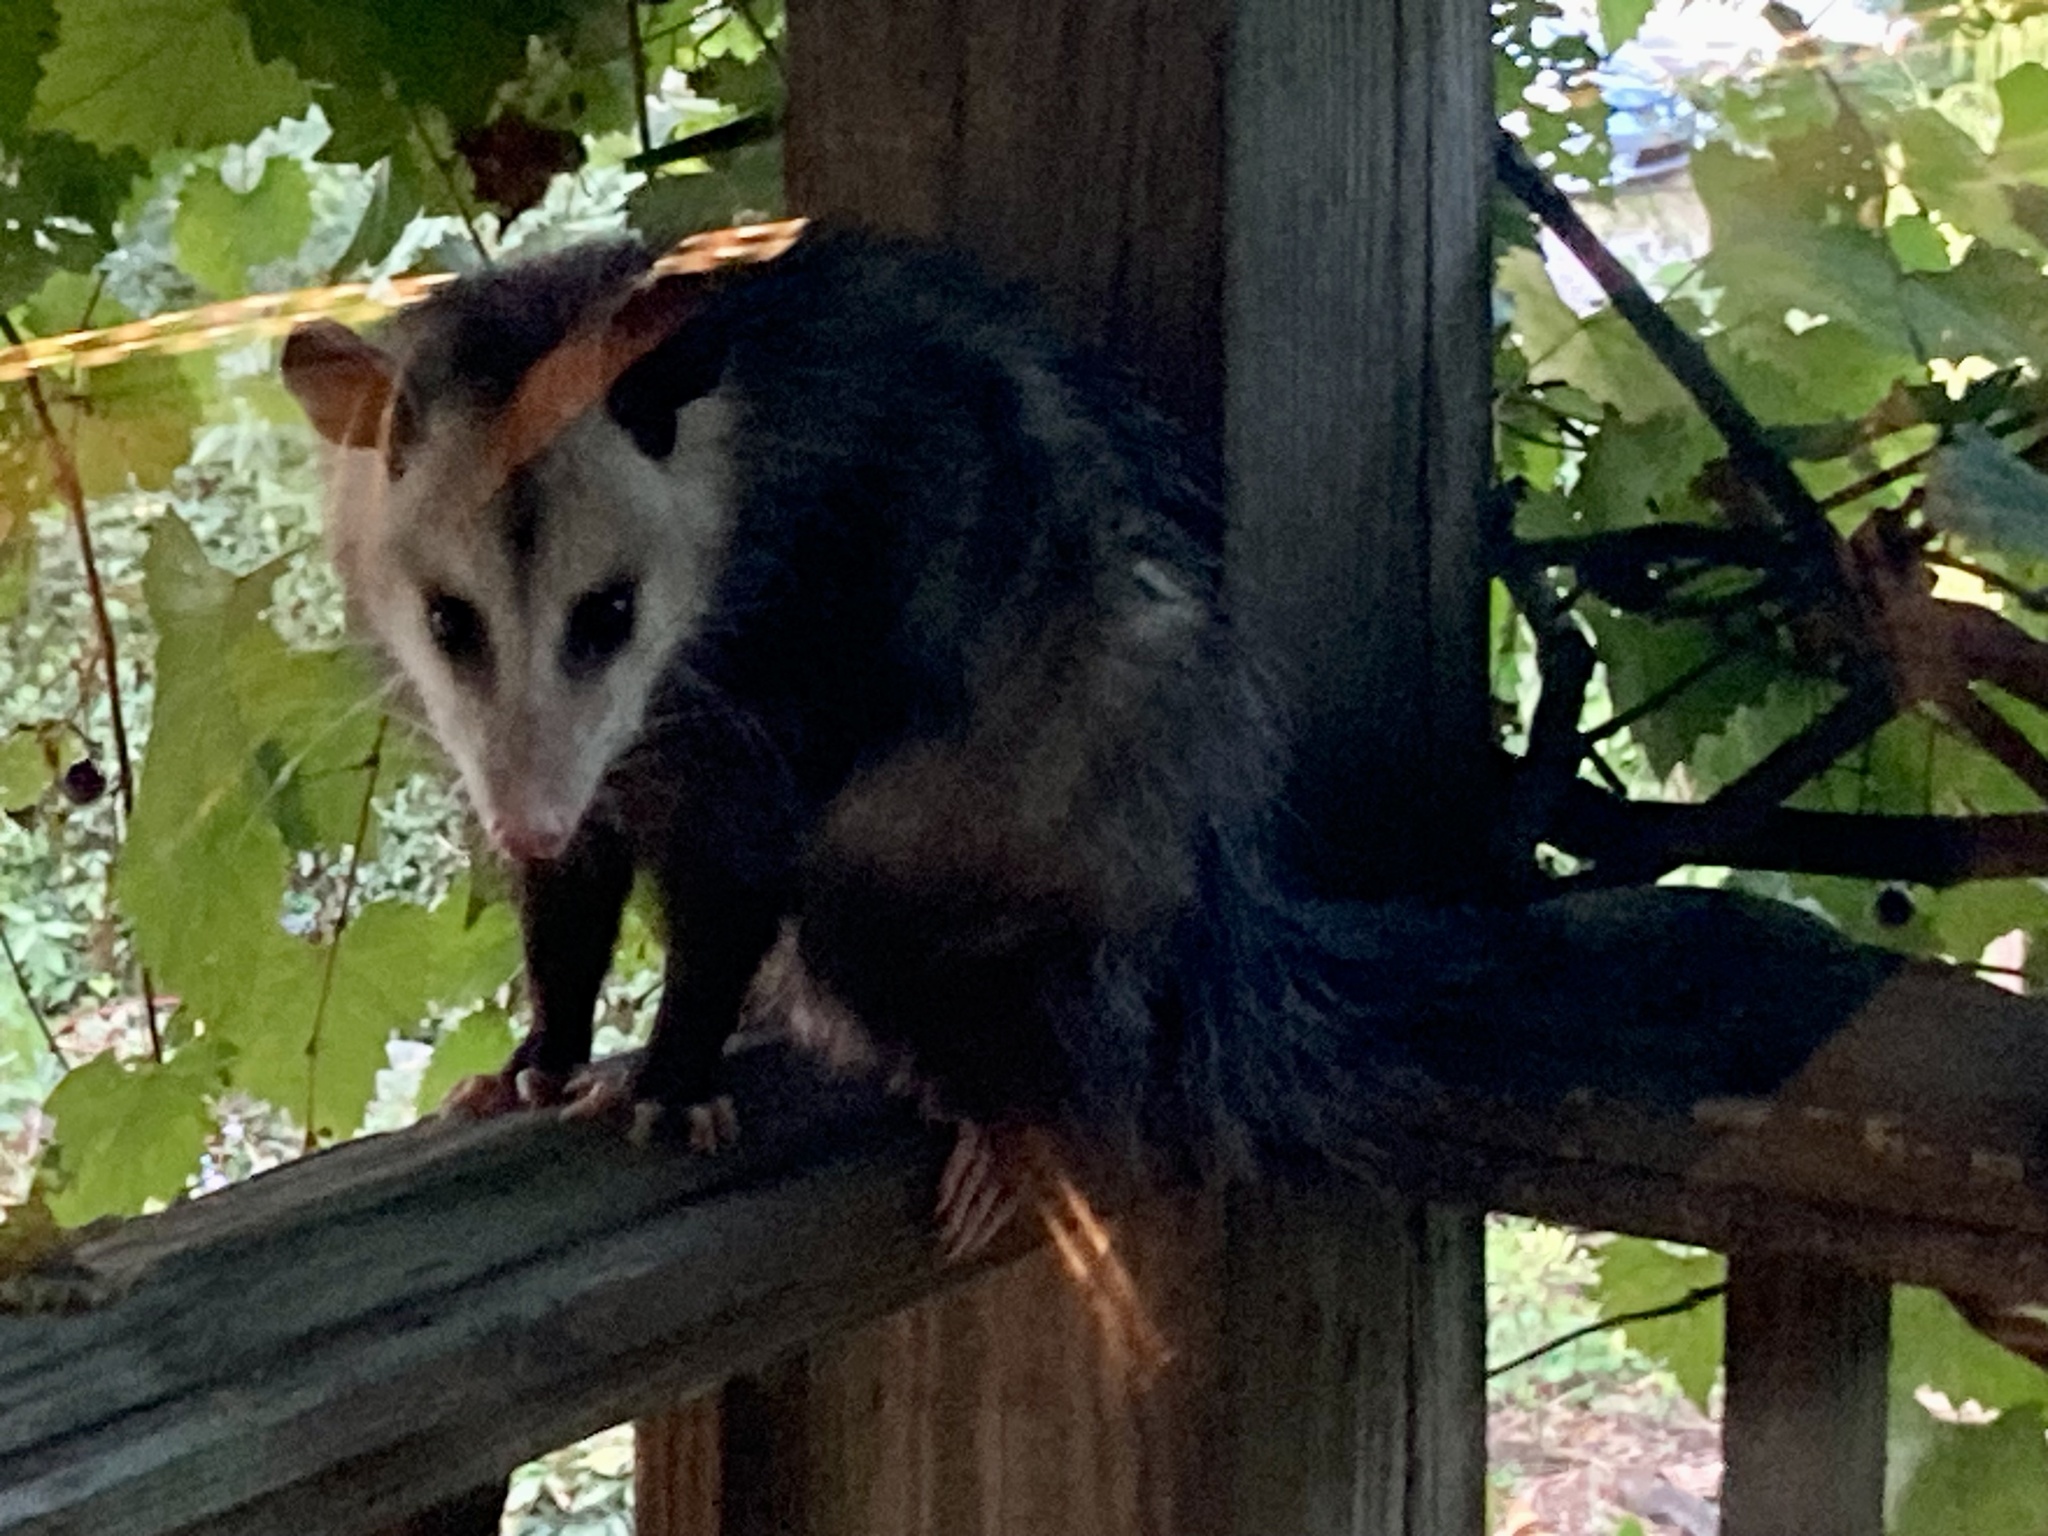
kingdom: Animalia
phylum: Chordata
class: Mammalia
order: Didelphimorphia
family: Didelphidae
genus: Didelphis
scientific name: Didelphis virginiana
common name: Virginia opossum
